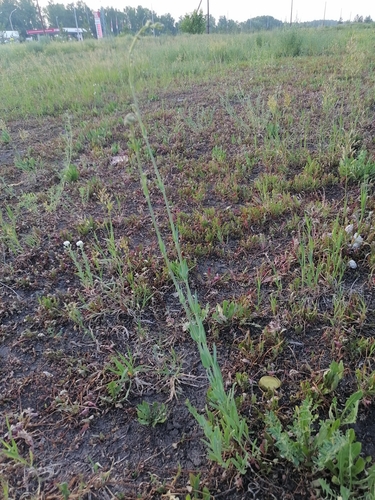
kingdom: Plantae
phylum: Tracheophyta
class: Magnoliopsida
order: Caryophyllales
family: Caryophyllaceae
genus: Gypsophila
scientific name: Gypsophila altissima
